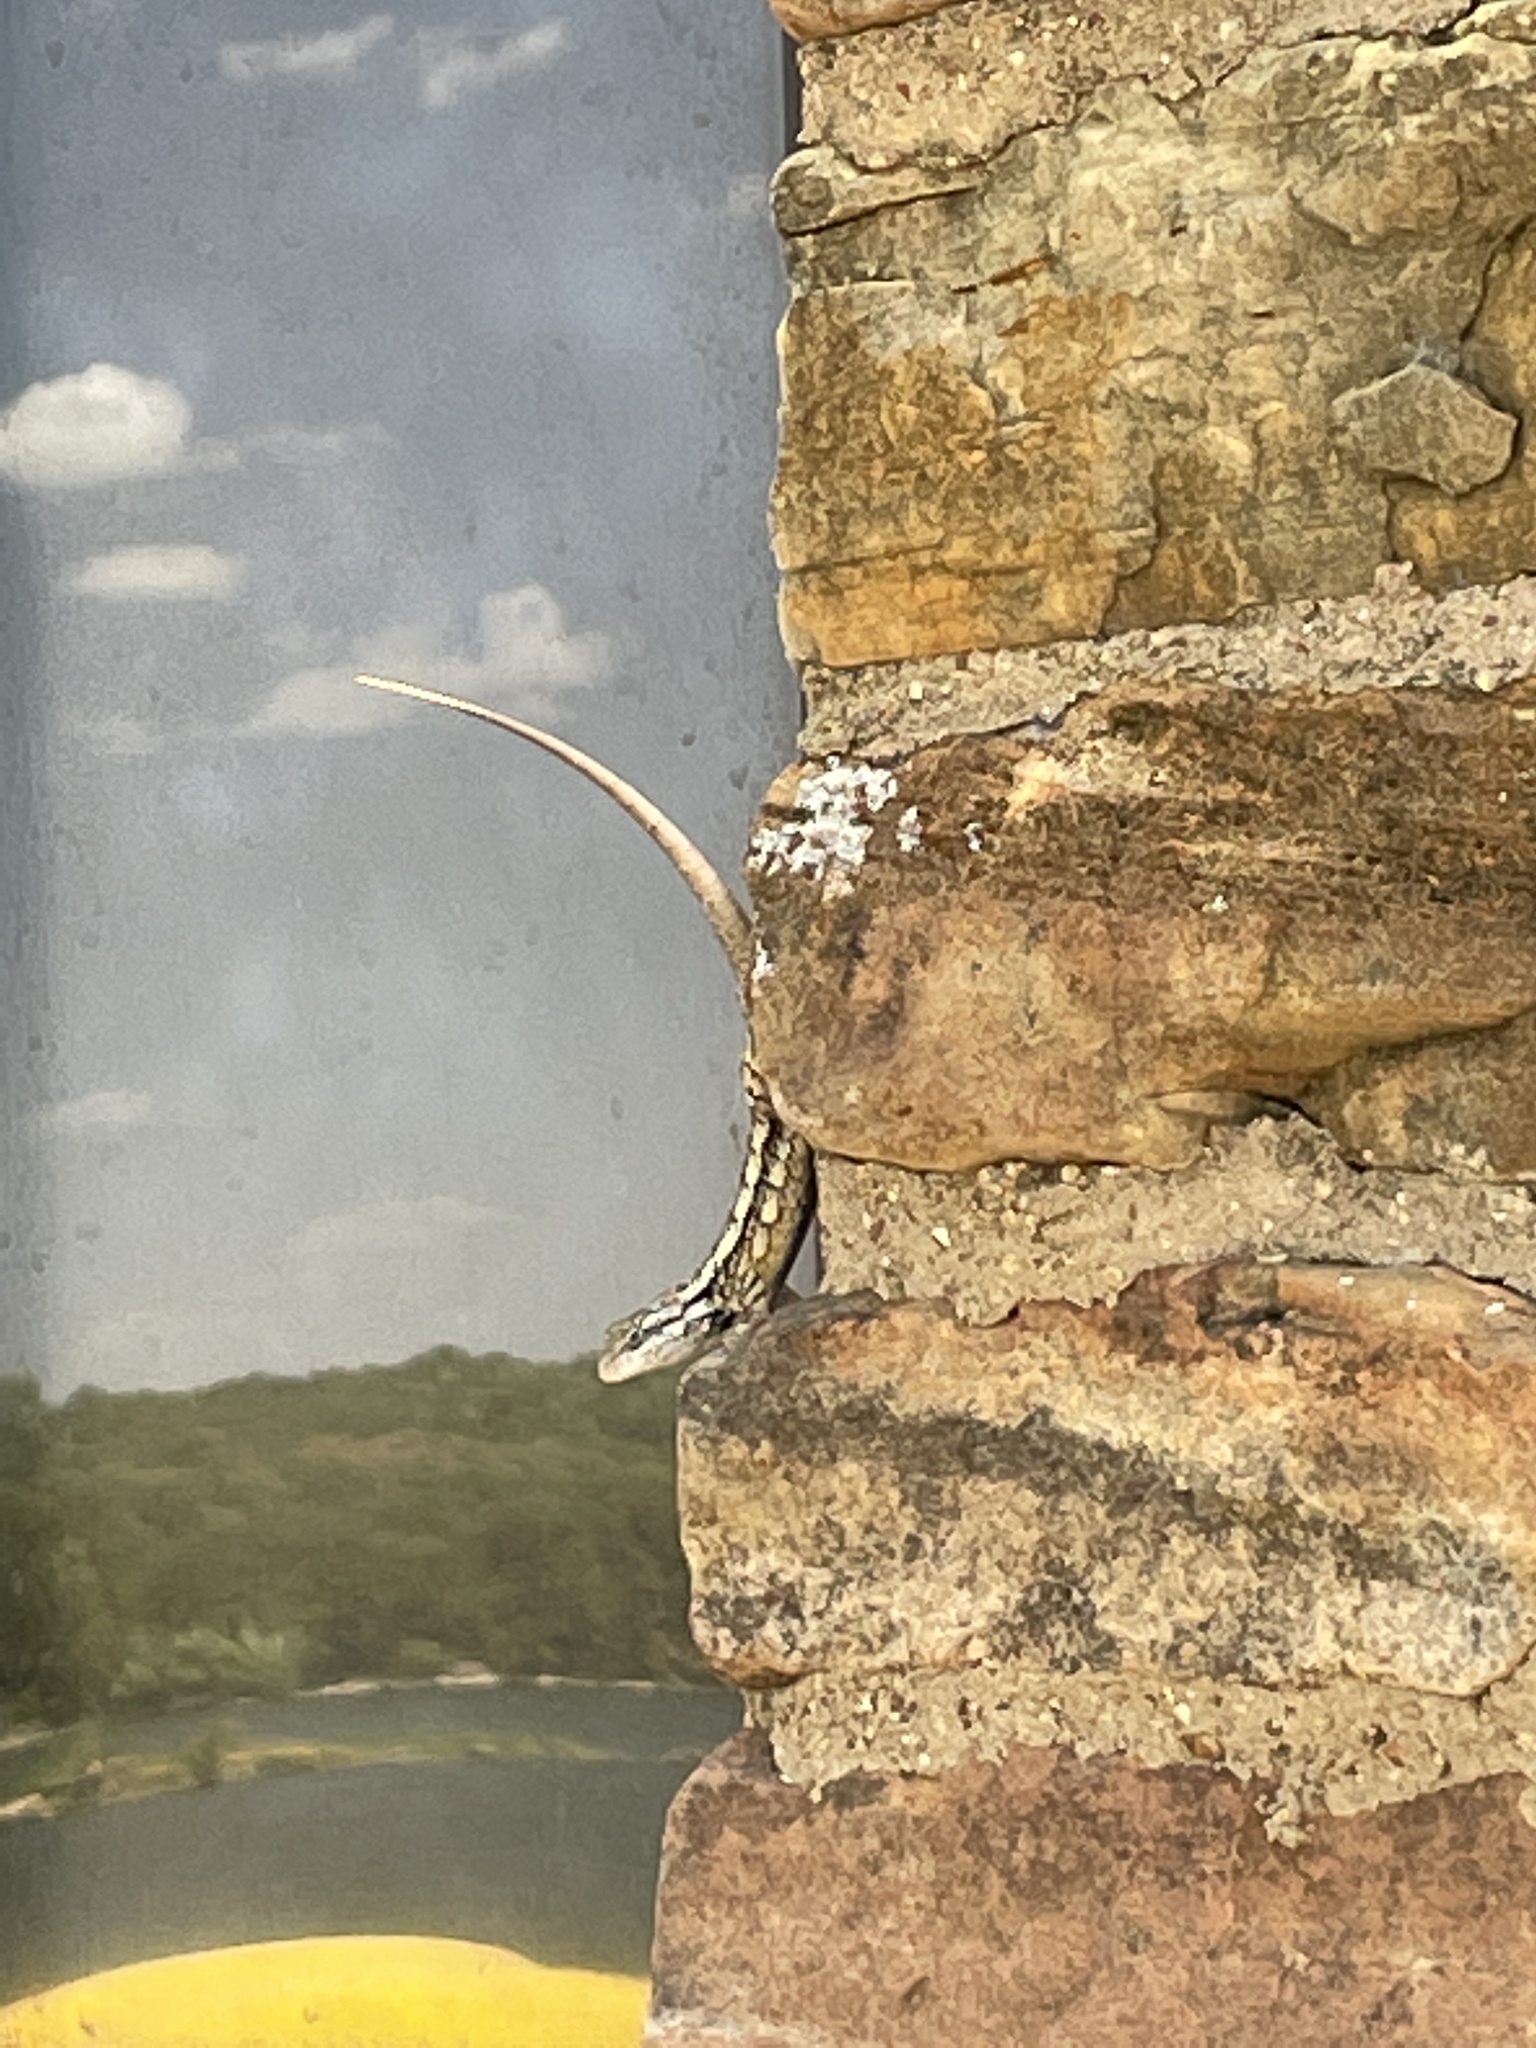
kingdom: Animalia
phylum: Chordata
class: Squamata
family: Phrynosomatidae
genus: Sceloporus
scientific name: Sceloporus olivaceus
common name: Texas spiny lizard
